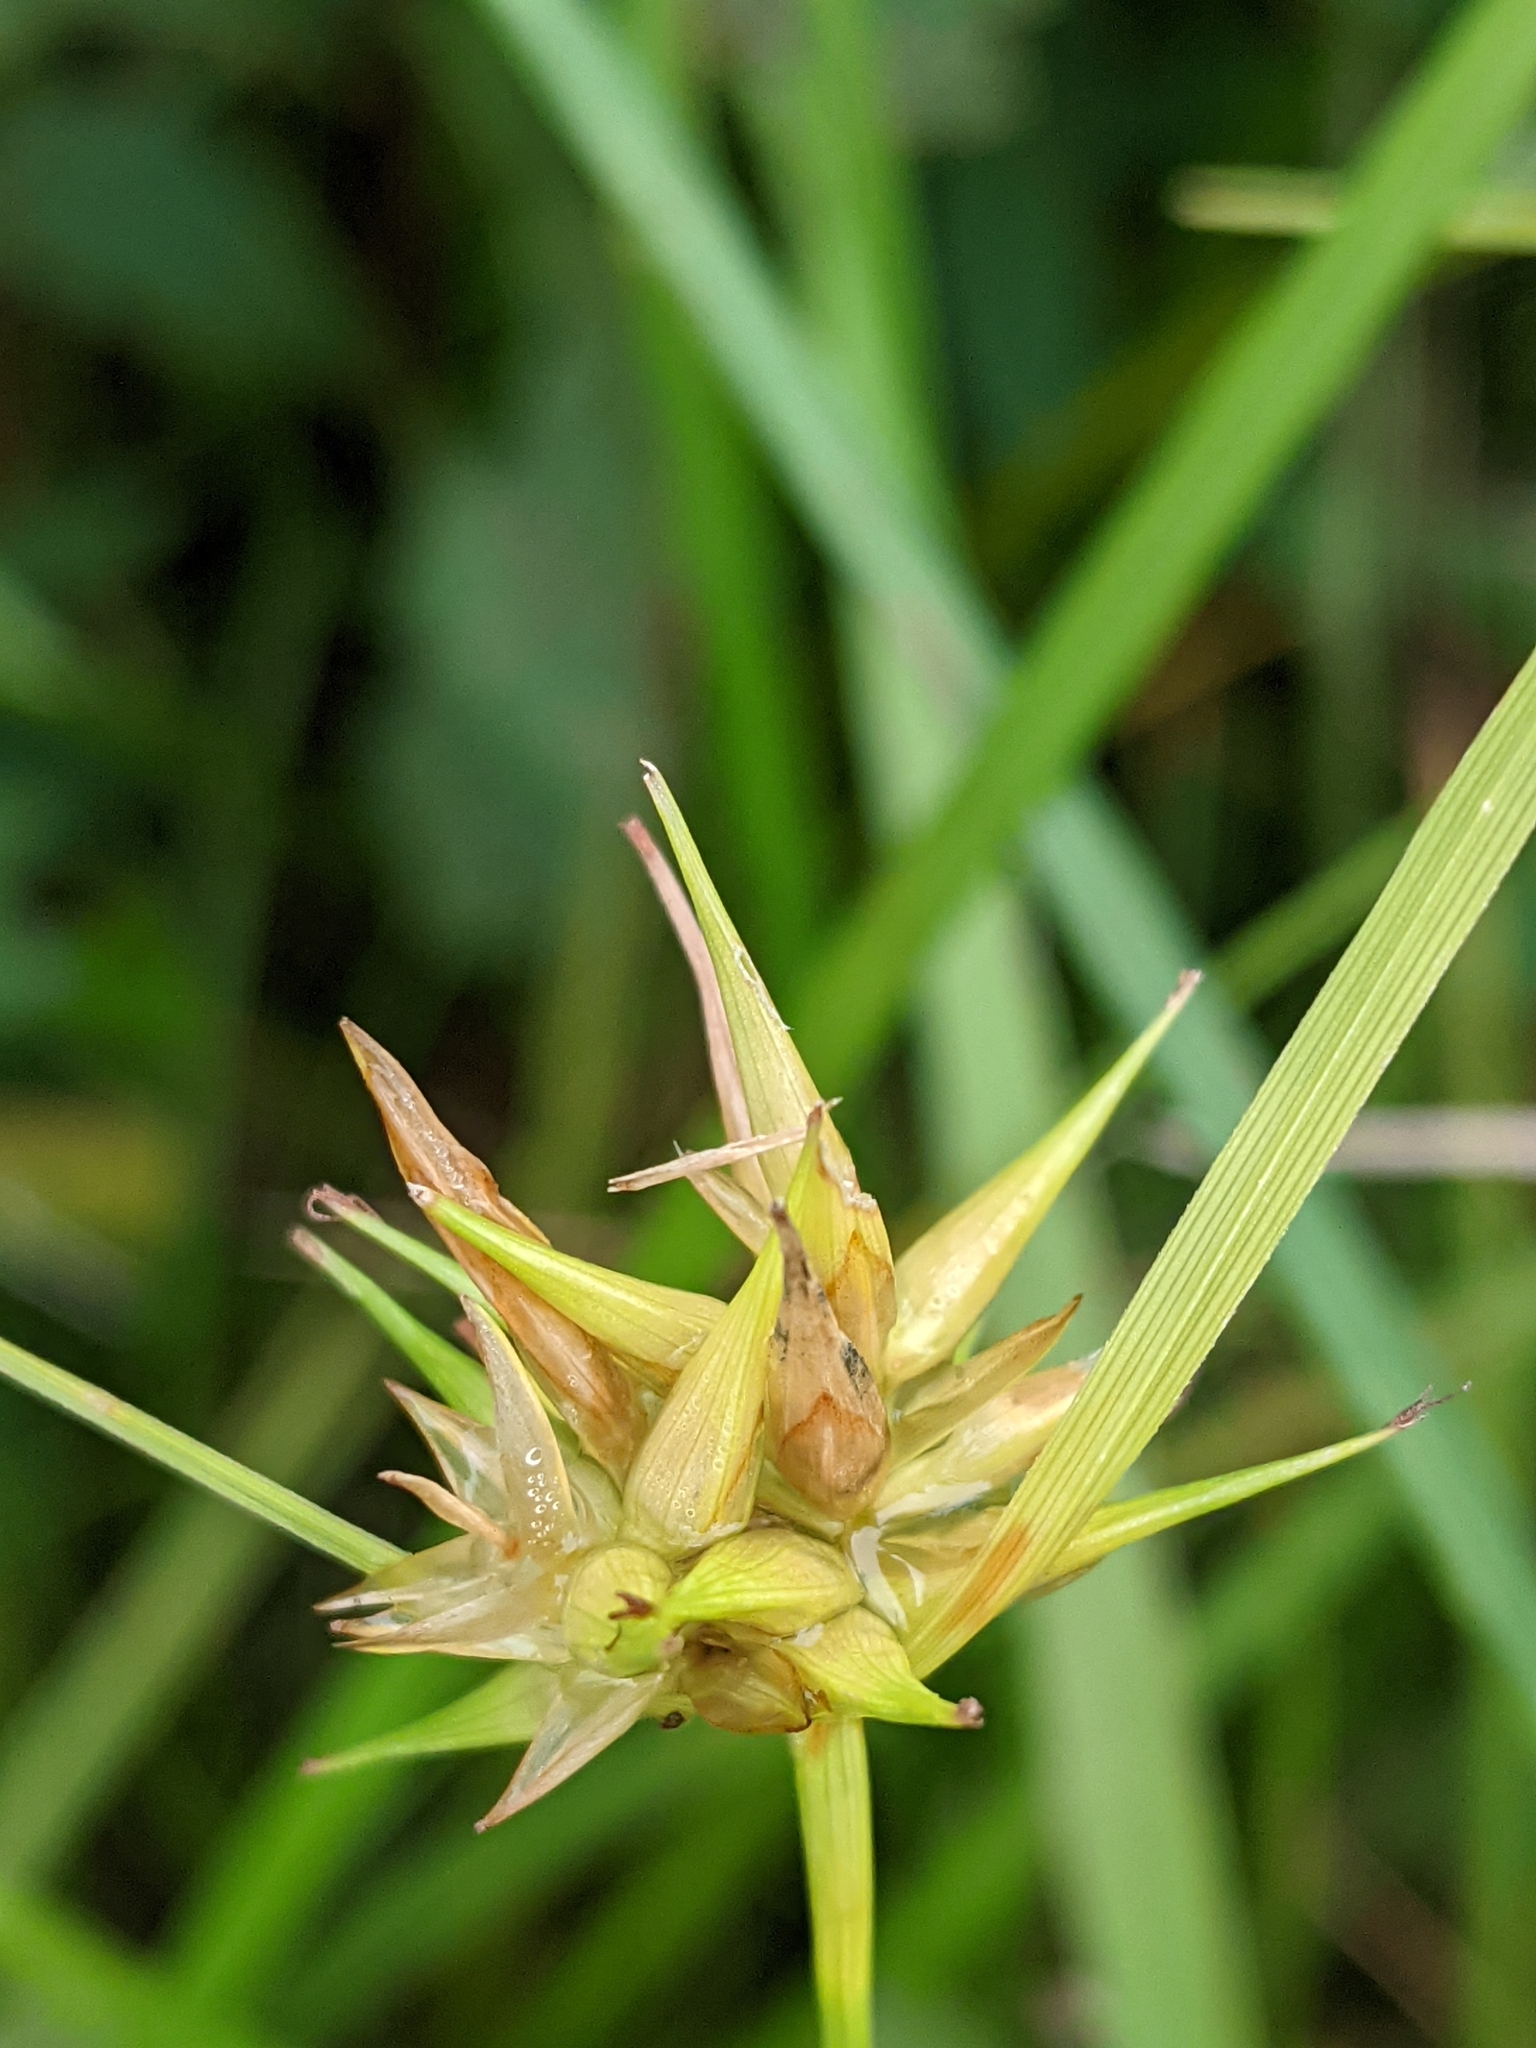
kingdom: Plantae
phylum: Tracheophyta
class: Liliopsida
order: Poales
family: Cyperaceae
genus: Carex
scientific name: Carex michauxiana
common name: Michaux's sedge
